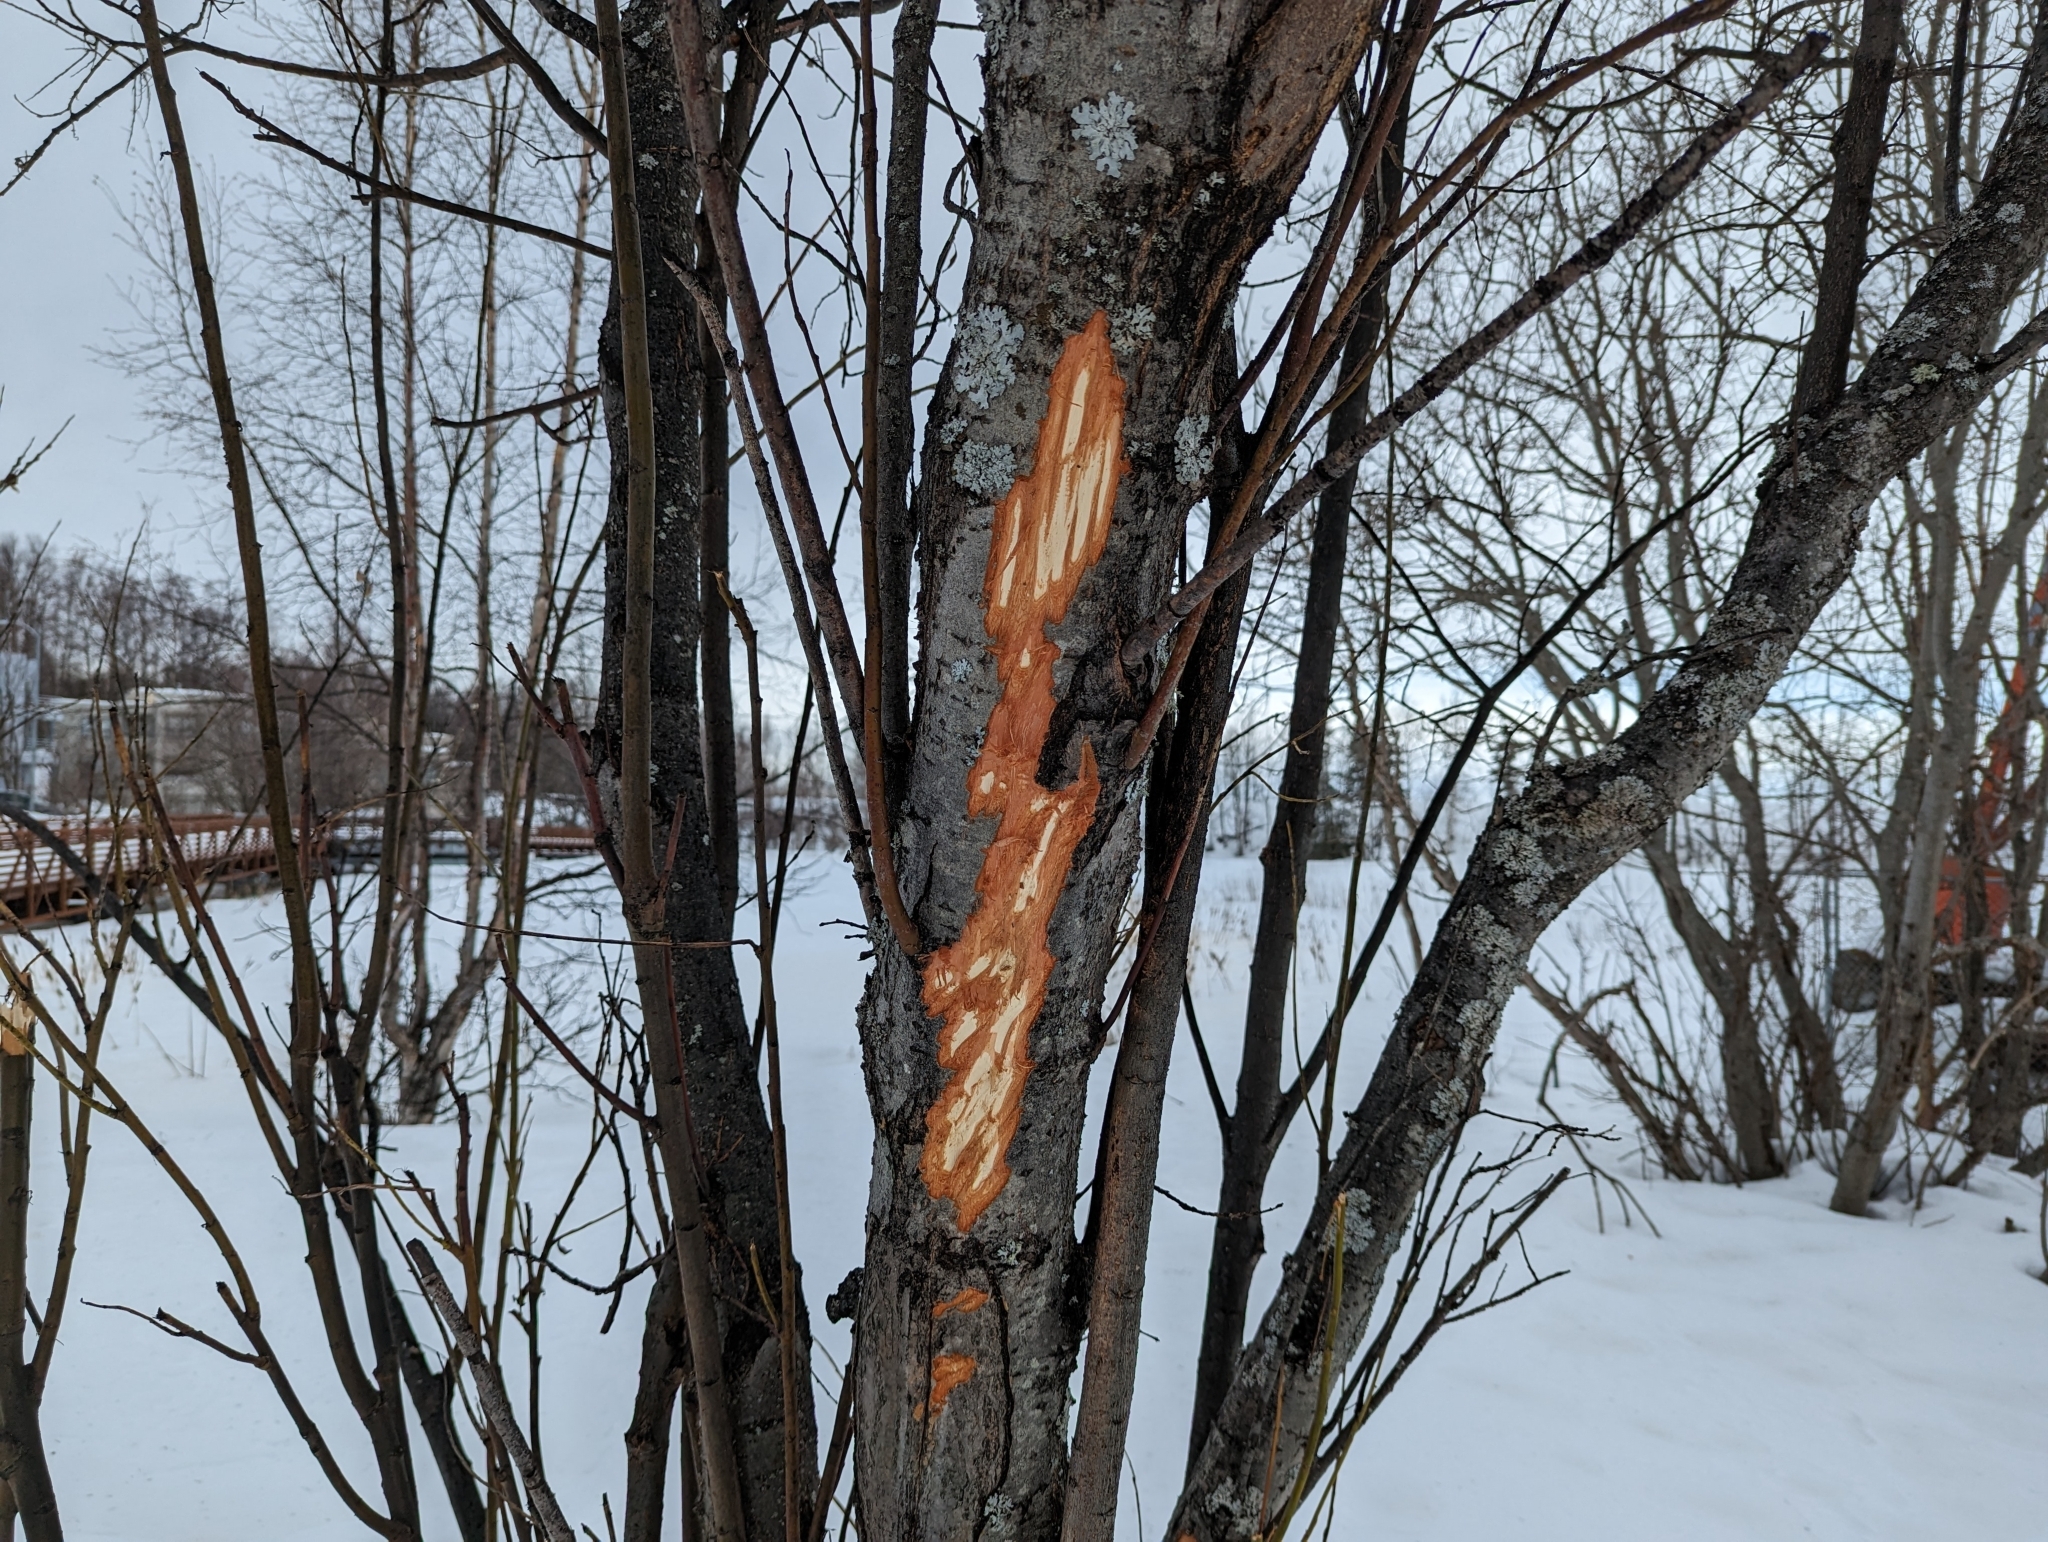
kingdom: Animalia
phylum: Chordata
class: Mammalia
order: Artiodactyla
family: Cervidae
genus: Alces
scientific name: Alces alces
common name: Moose
